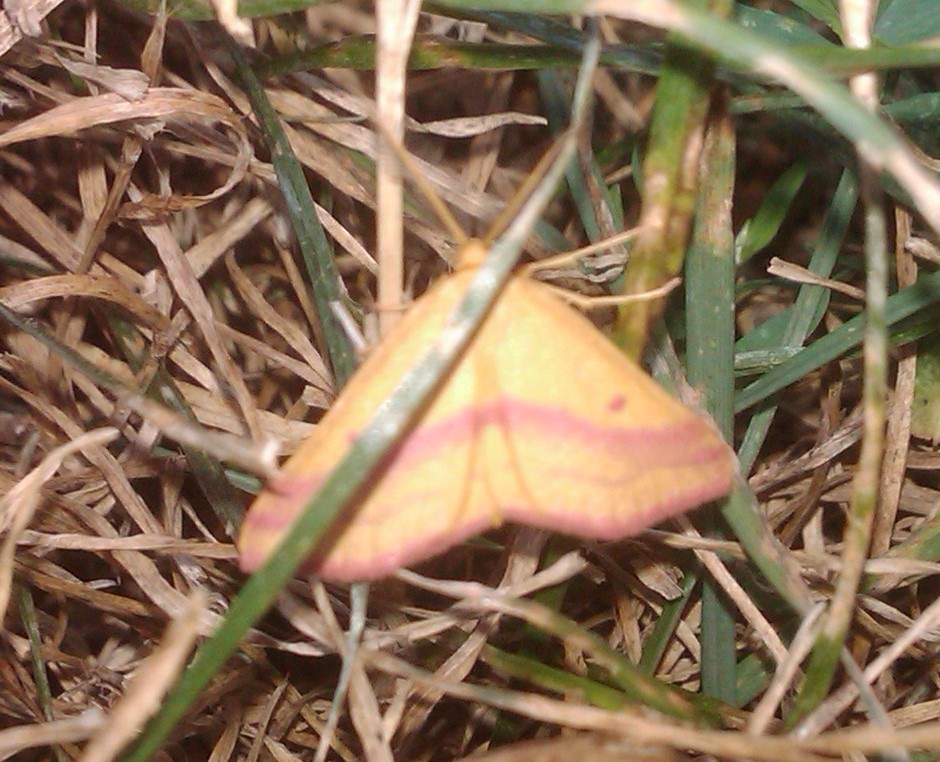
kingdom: Animalia
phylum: Arthropoda
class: Insecta
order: Lepidoptera
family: Geometridae
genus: Haematopis
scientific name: Haematopis grataria
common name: Chickweed geometer
